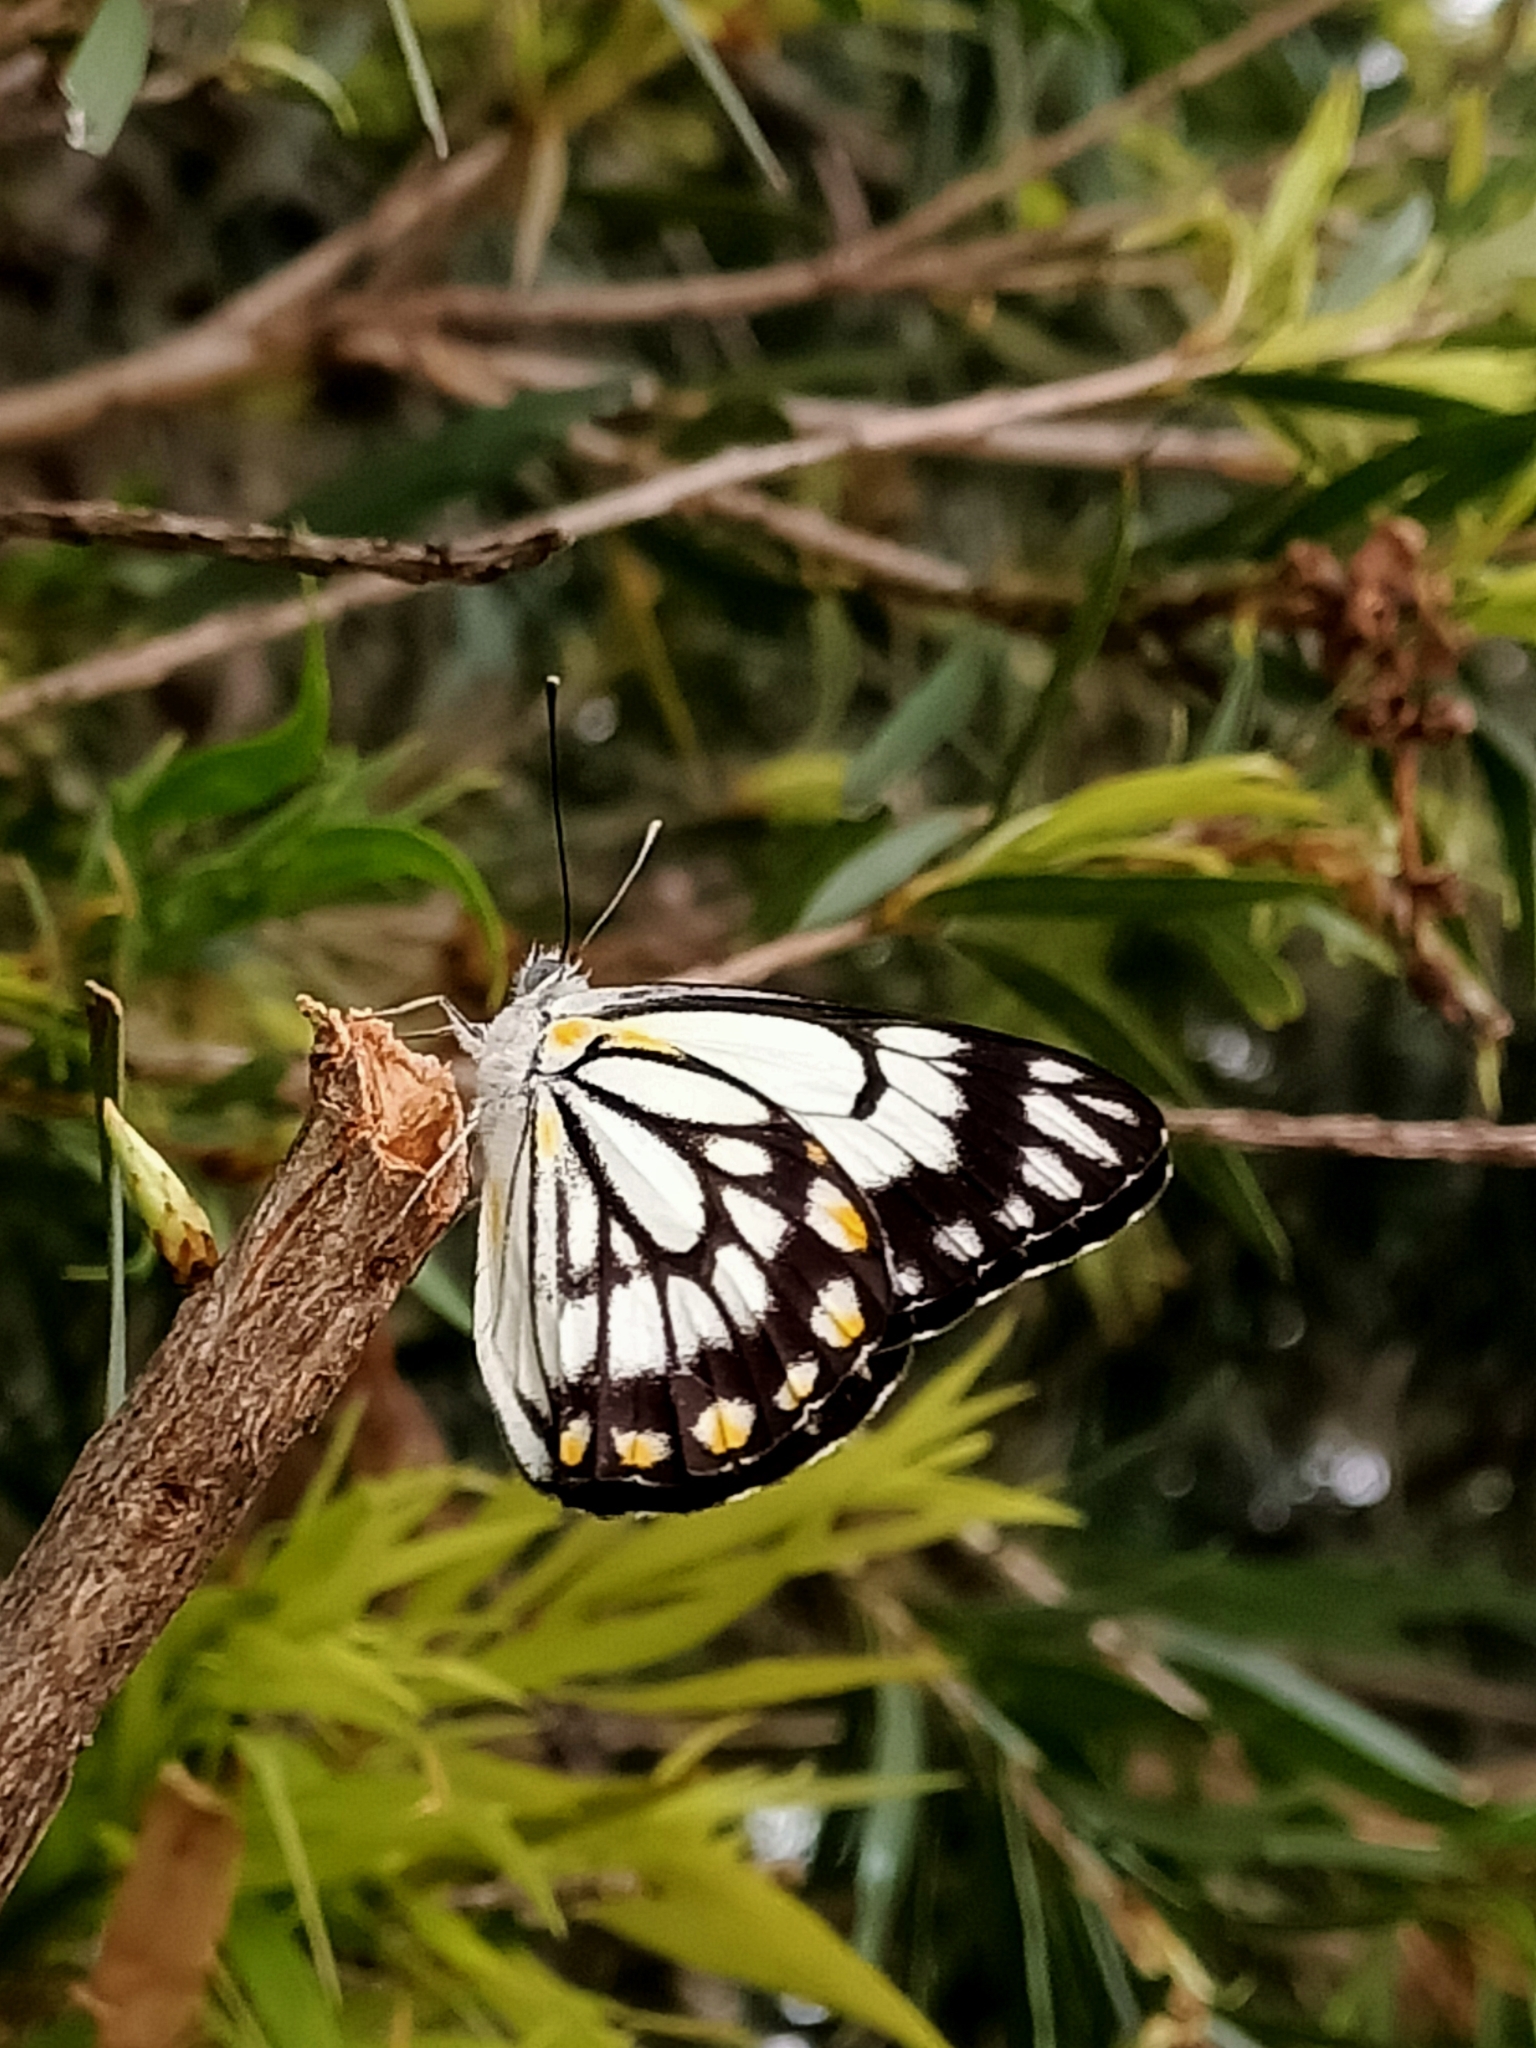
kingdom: Animalia
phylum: Arthropoda
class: Insecta
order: Lepidoptera
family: Pieridae
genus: Belenois
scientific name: Belenois java
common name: Caper white
